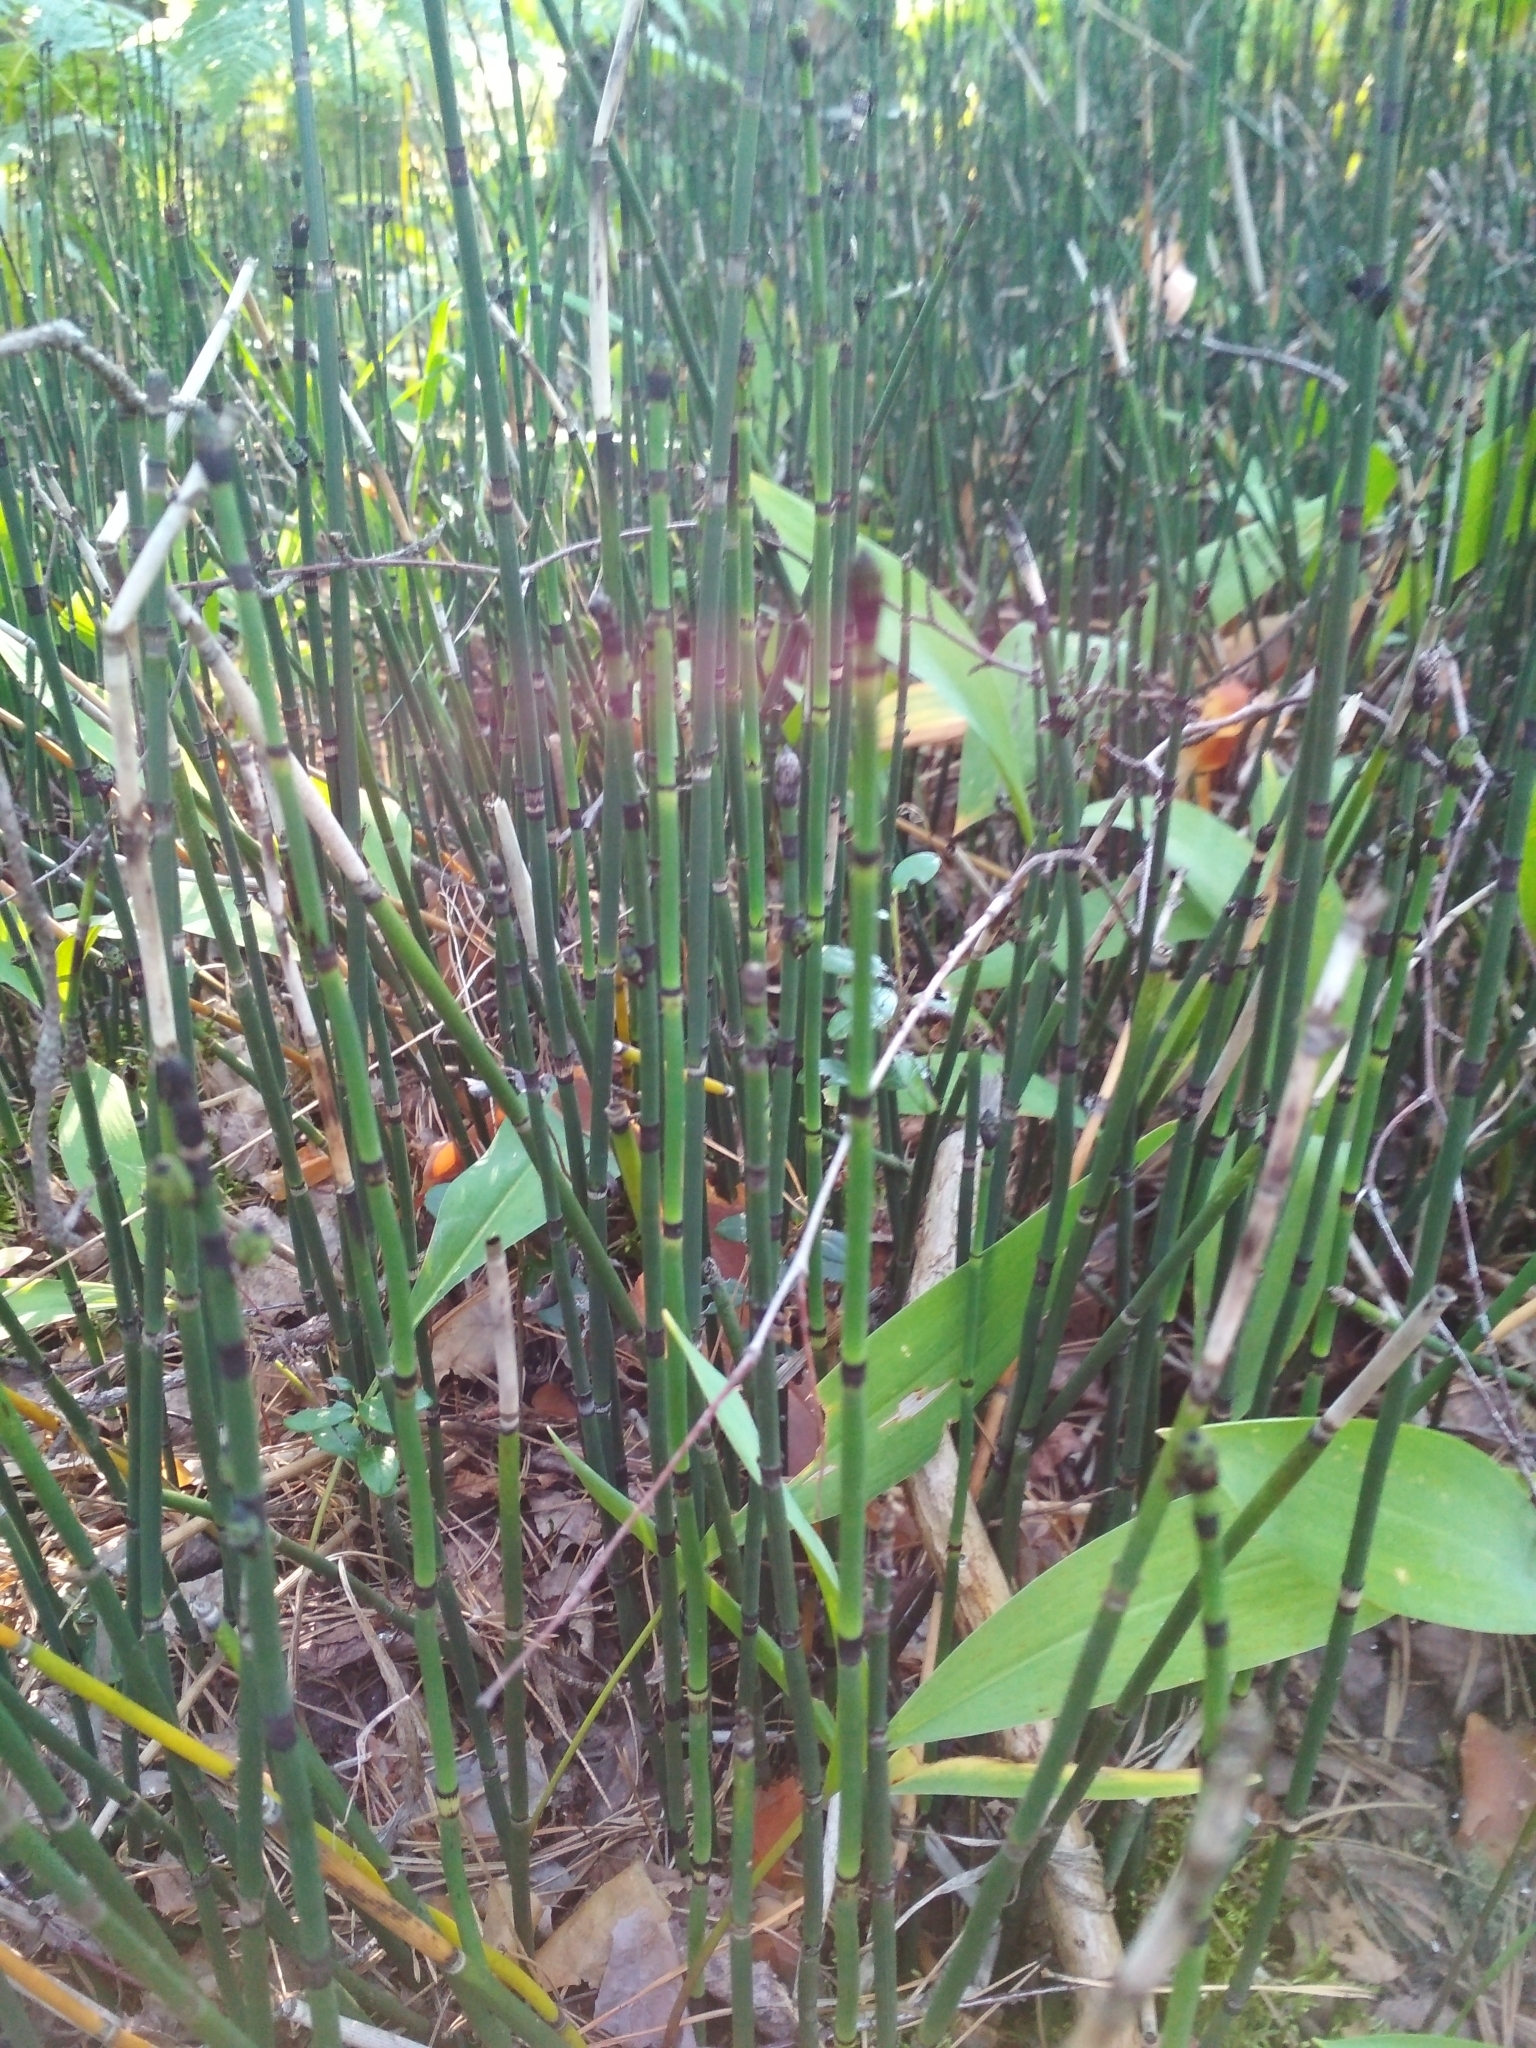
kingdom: Plantae
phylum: Tracheophyta
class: Polypodiopsida
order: Equisetales
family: Equisetaceae
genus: Equisetum
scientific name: Equisetum hyemale
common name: Rough horsetail
